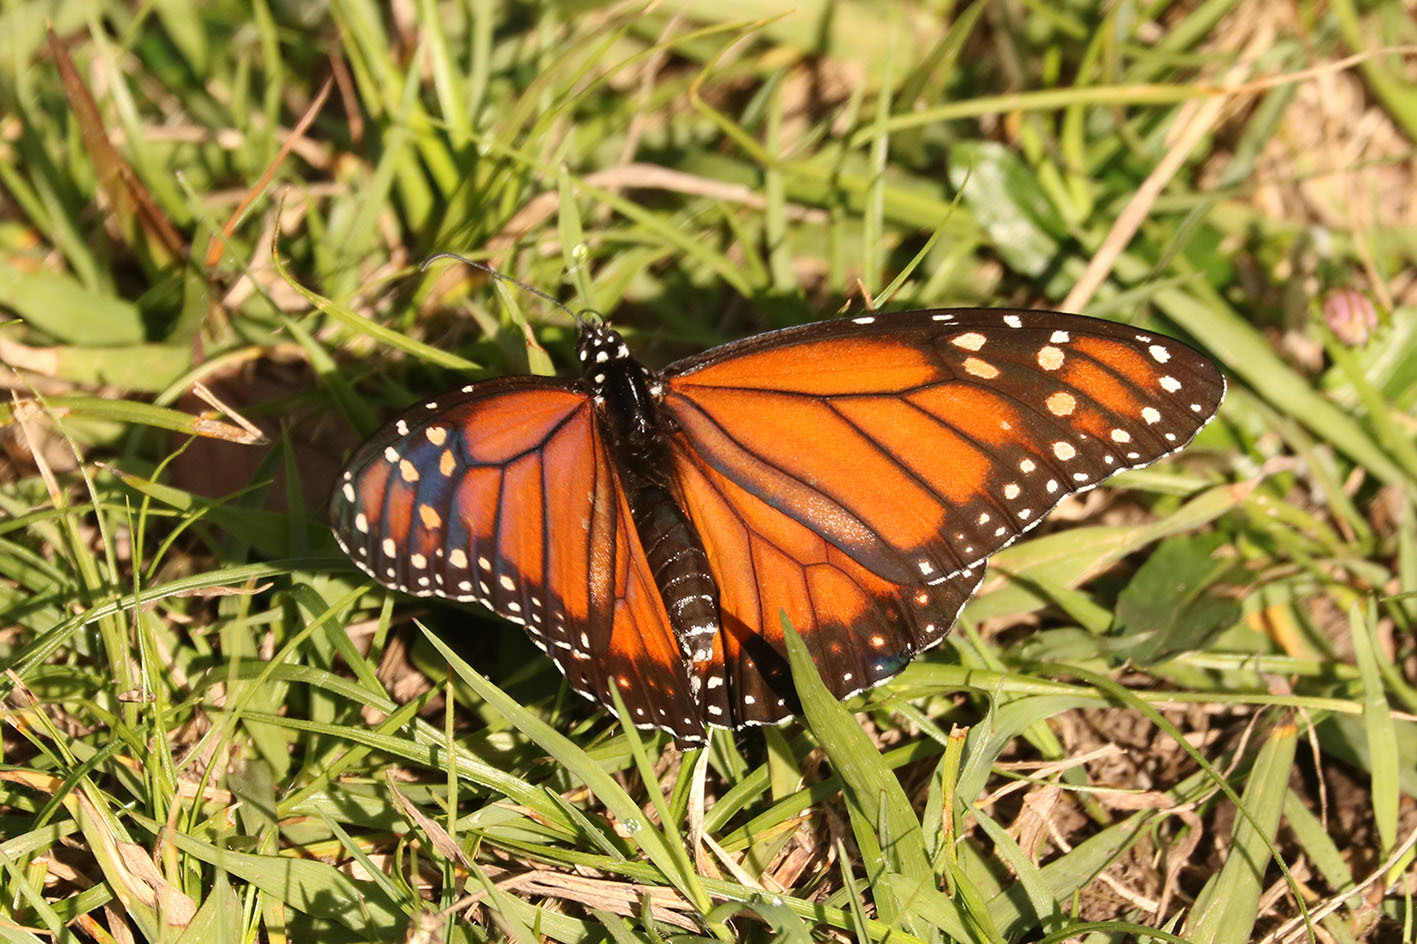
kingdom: Animalia
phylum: Arthropoda
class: Insecta
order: Lepidoptera
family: Nymphalidae
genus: Danaus
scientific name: Danaus erippus
